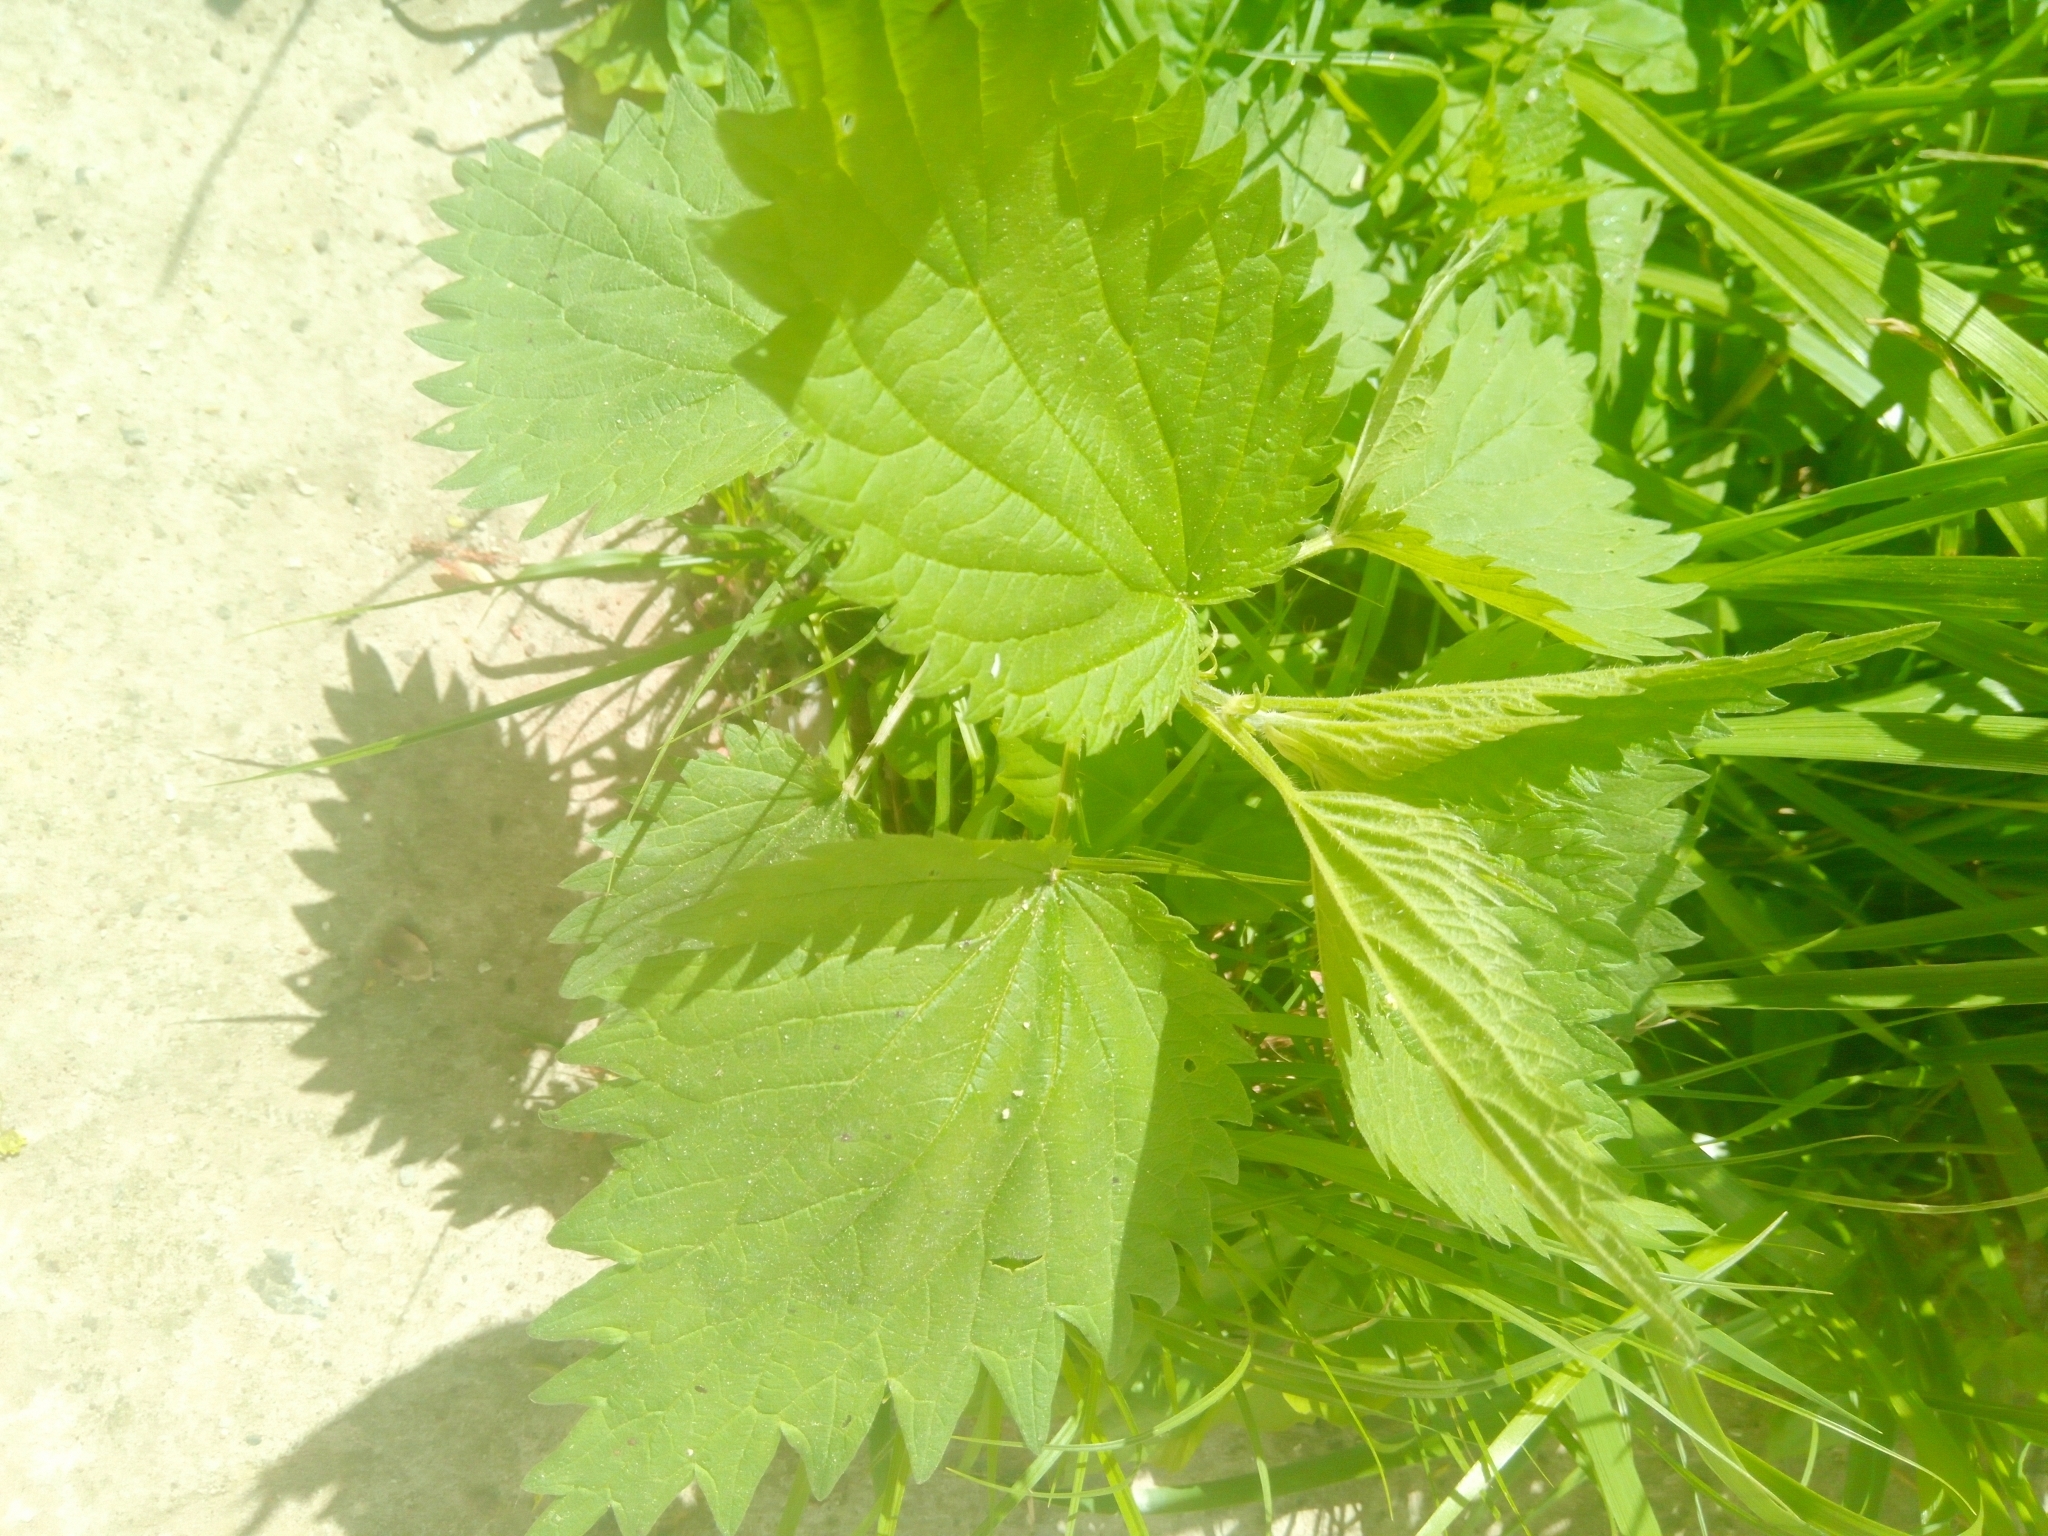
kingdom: Plantae
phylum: Tracheophyta
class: Magnoliopsida
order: Rosales
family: Urticaceae
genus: Urtica
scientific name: Urtica dioica
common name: Common nettle
